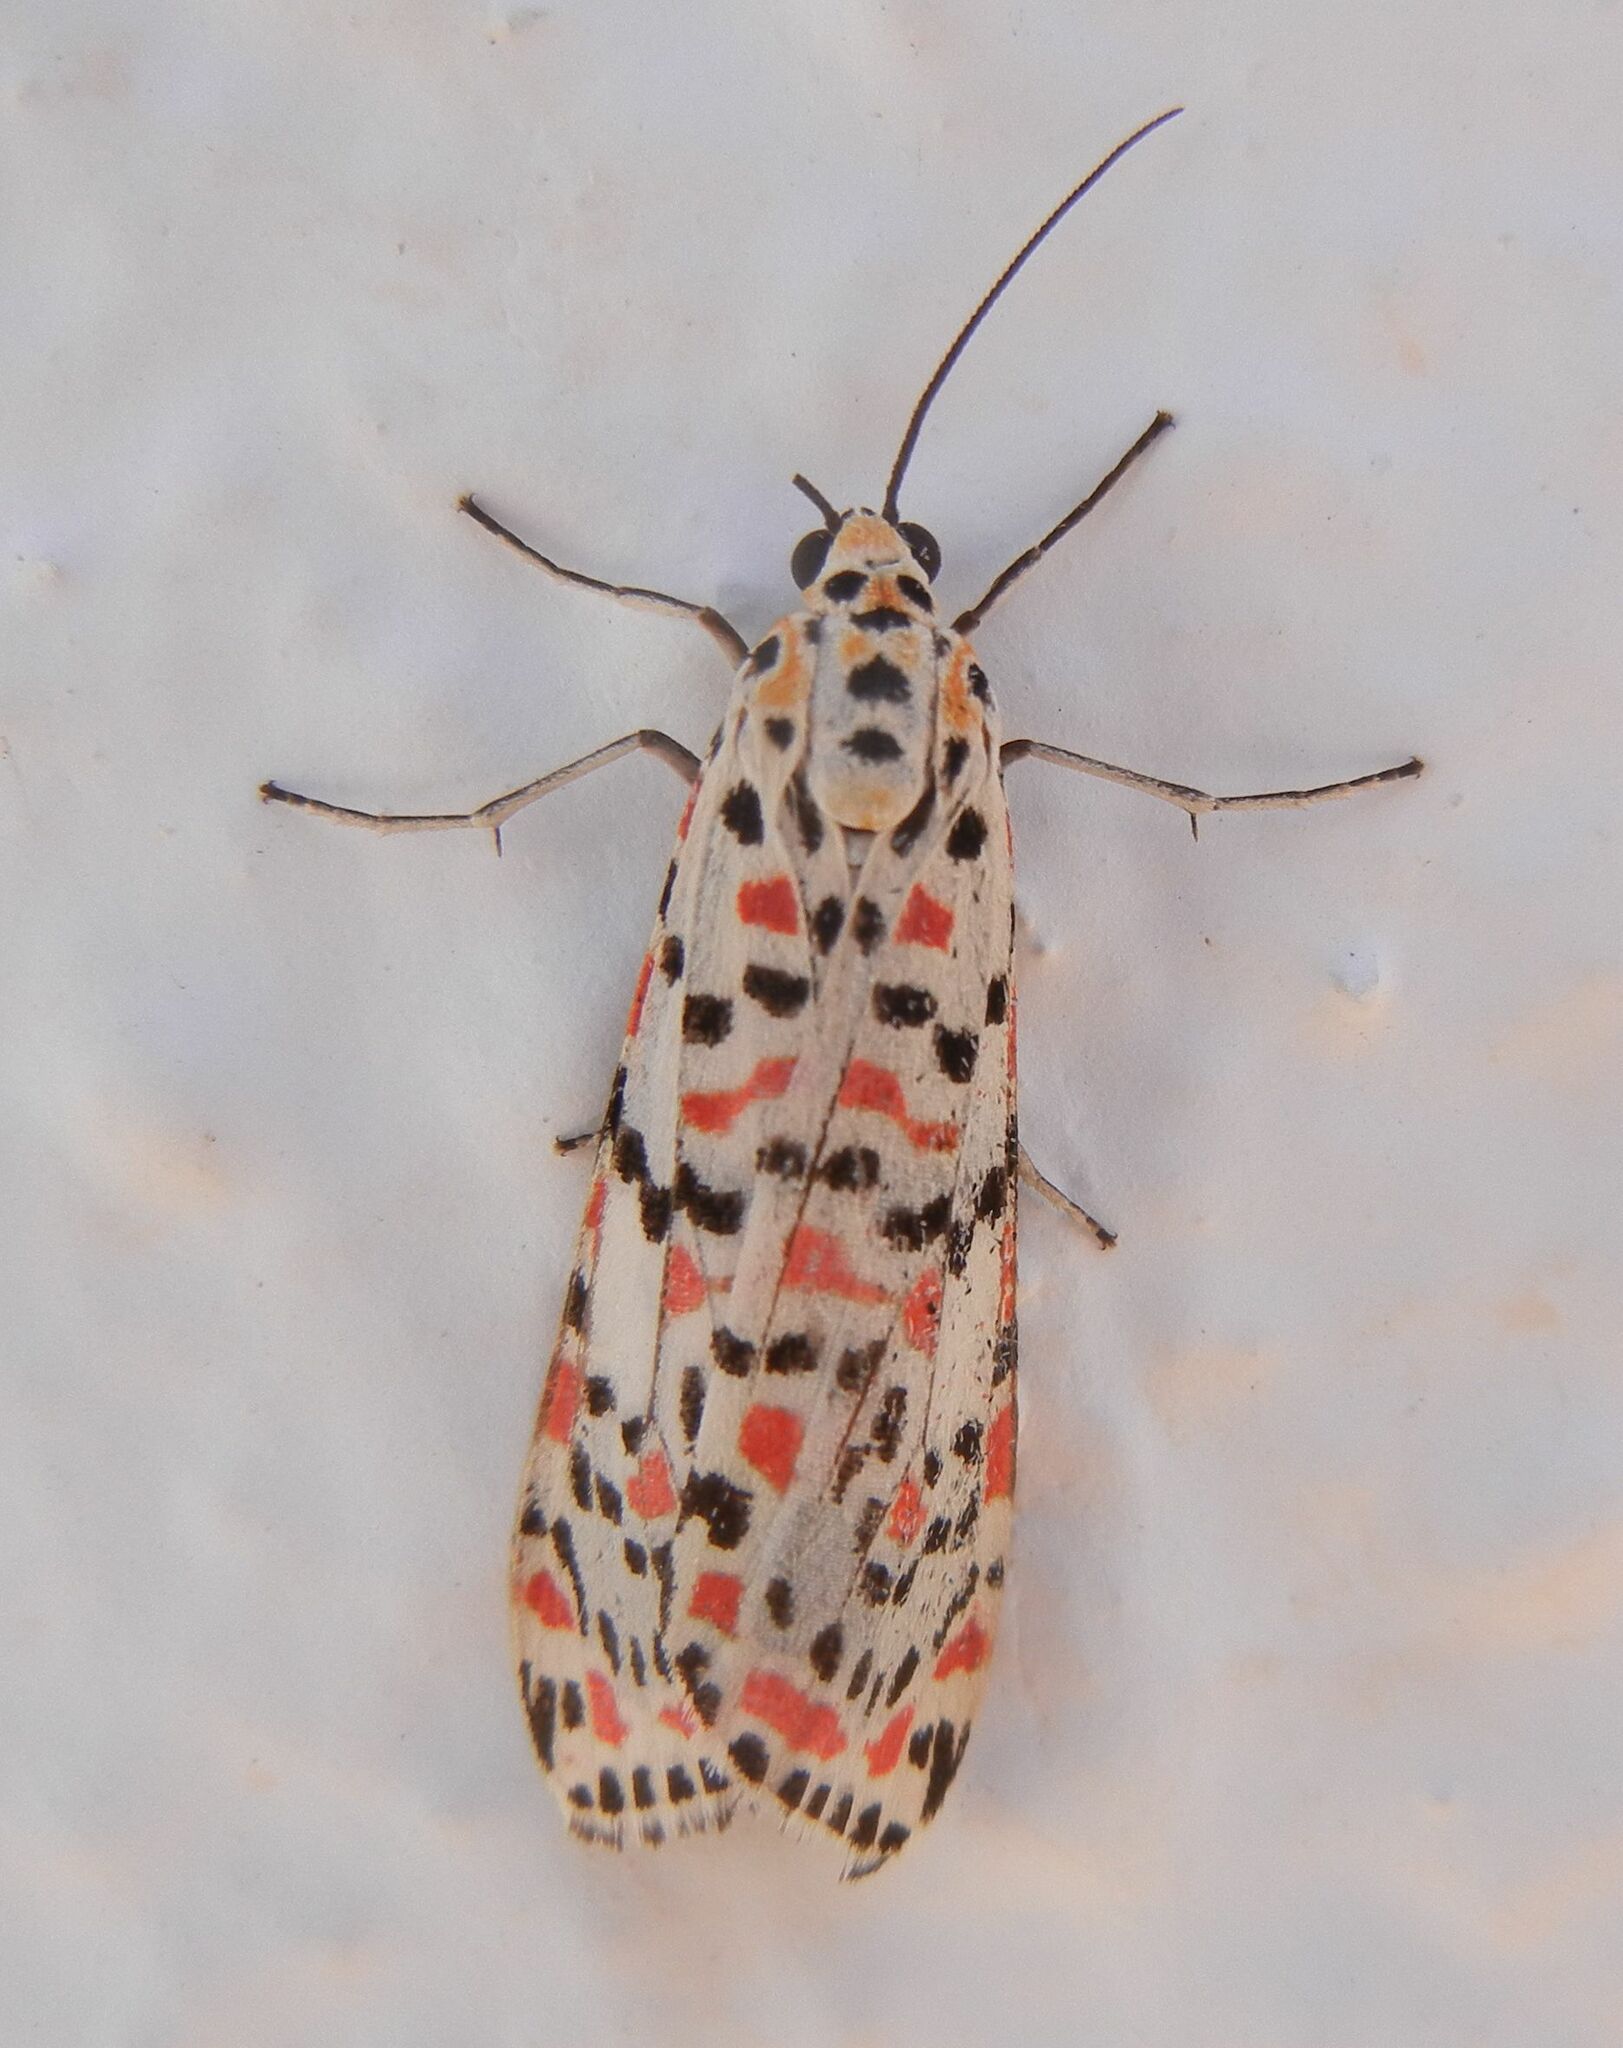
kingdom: Animalia
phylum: Arthropoda
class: Insecta
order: Lepidoptera
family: Erebidae
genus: Utetheisa
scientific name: Utetheisa pulchella
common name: Crimson speckled
